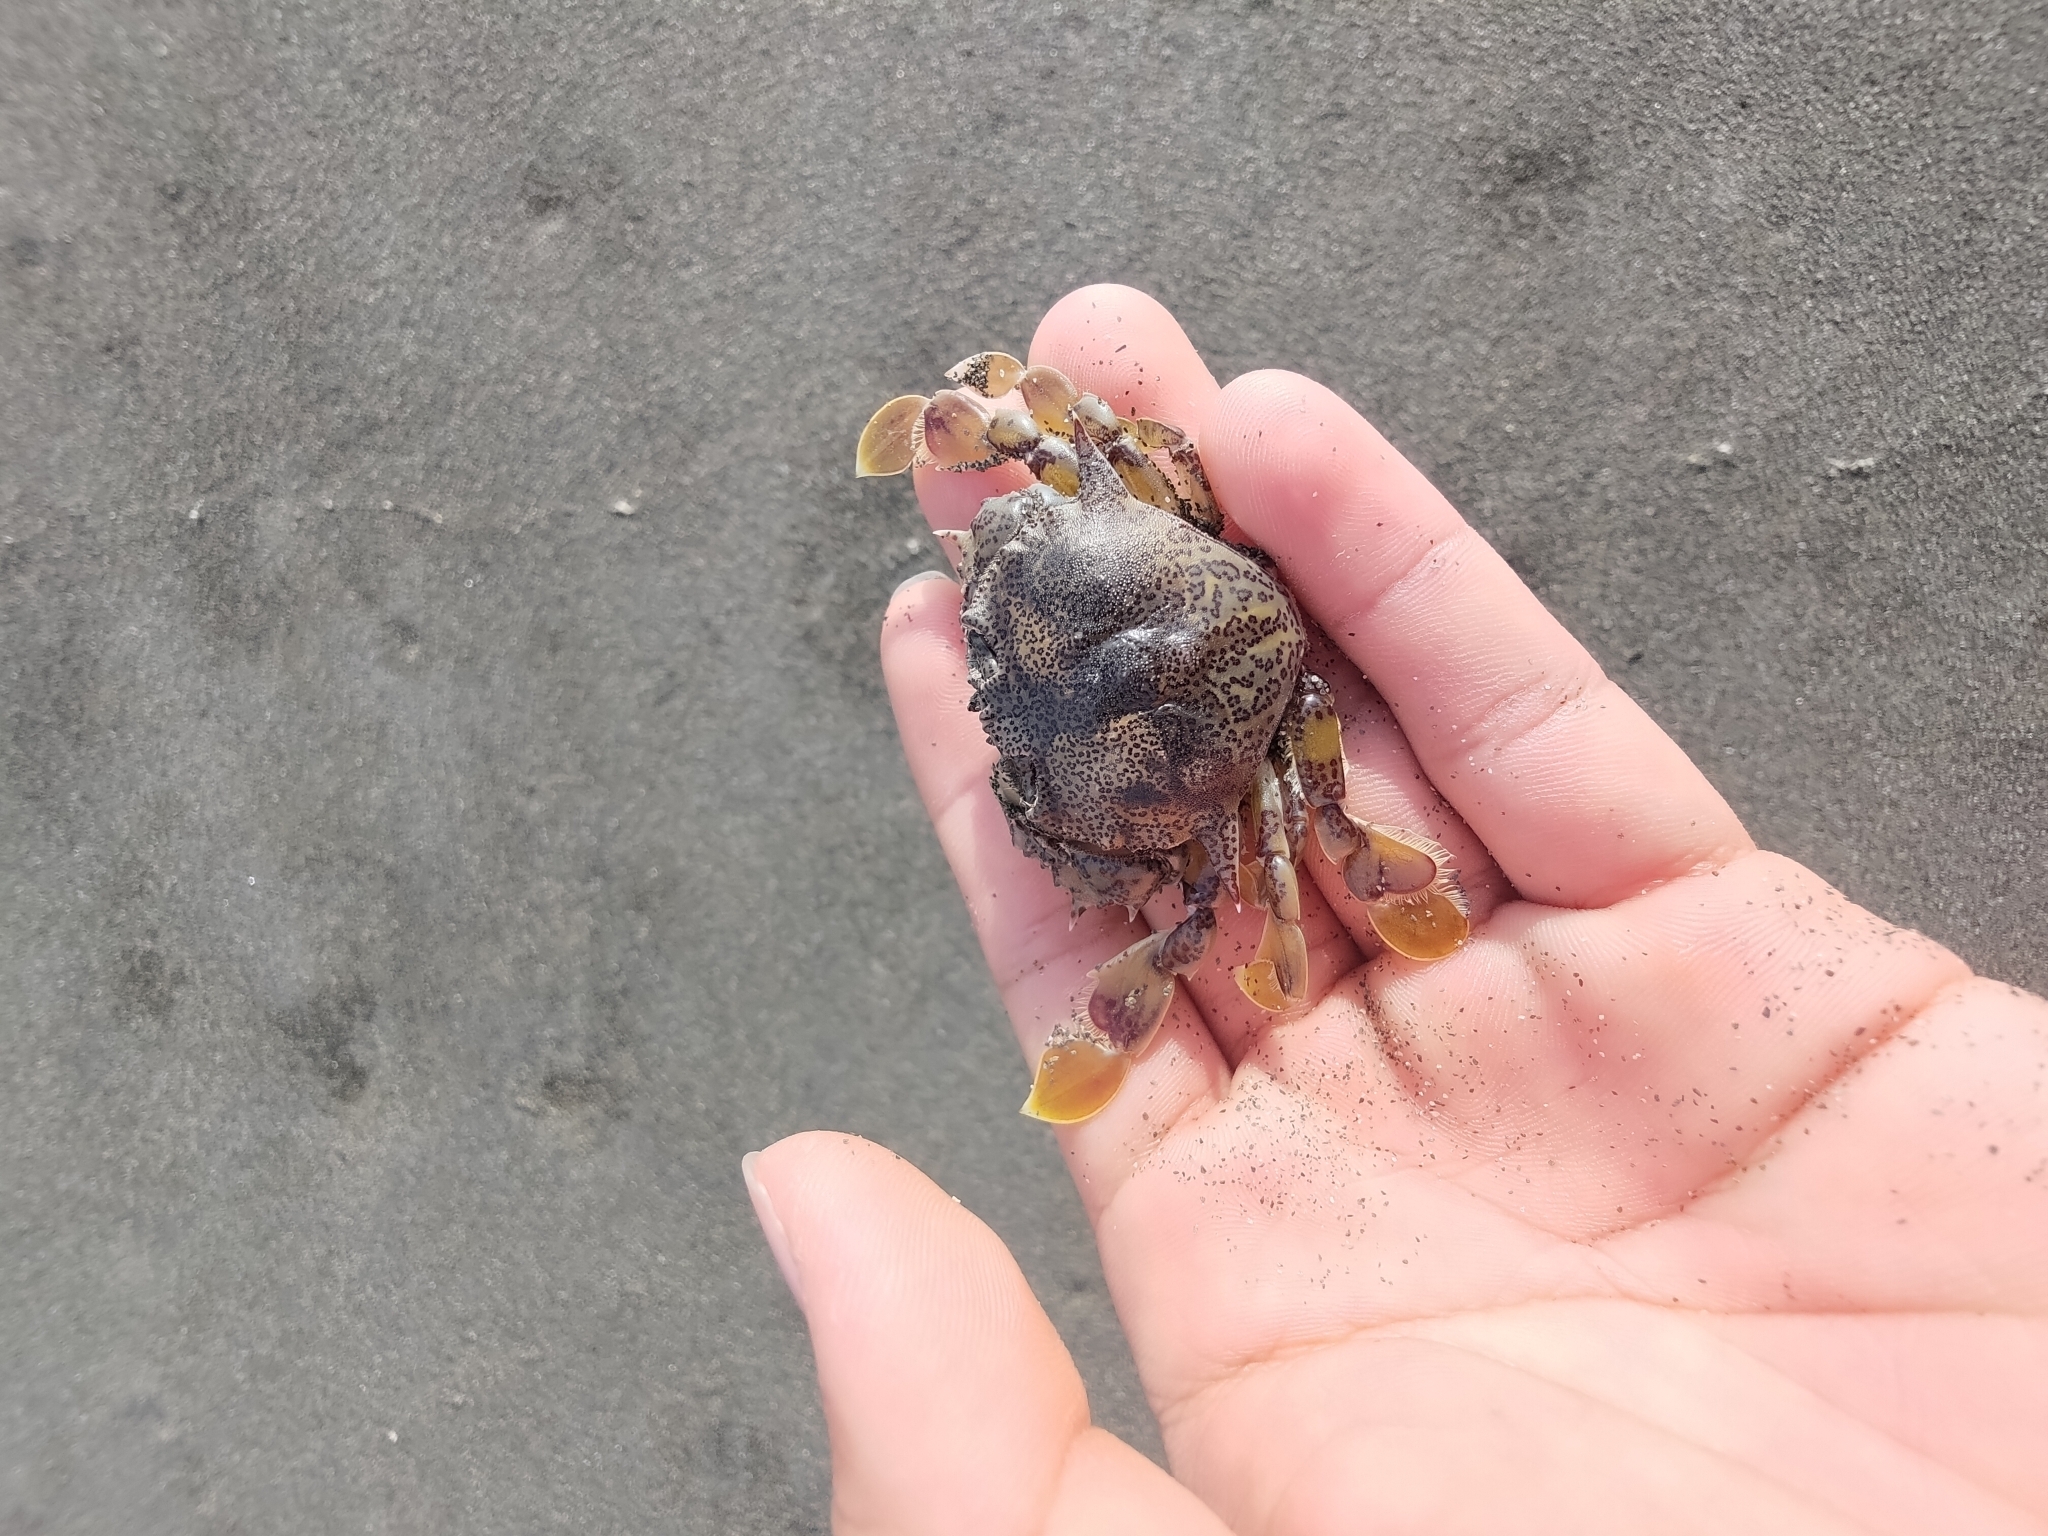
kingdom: Animalia
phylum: Arthropoda
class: Malacostraca
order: Decapoda
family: Matutidae
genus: Matuta
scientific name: Matuta victor
